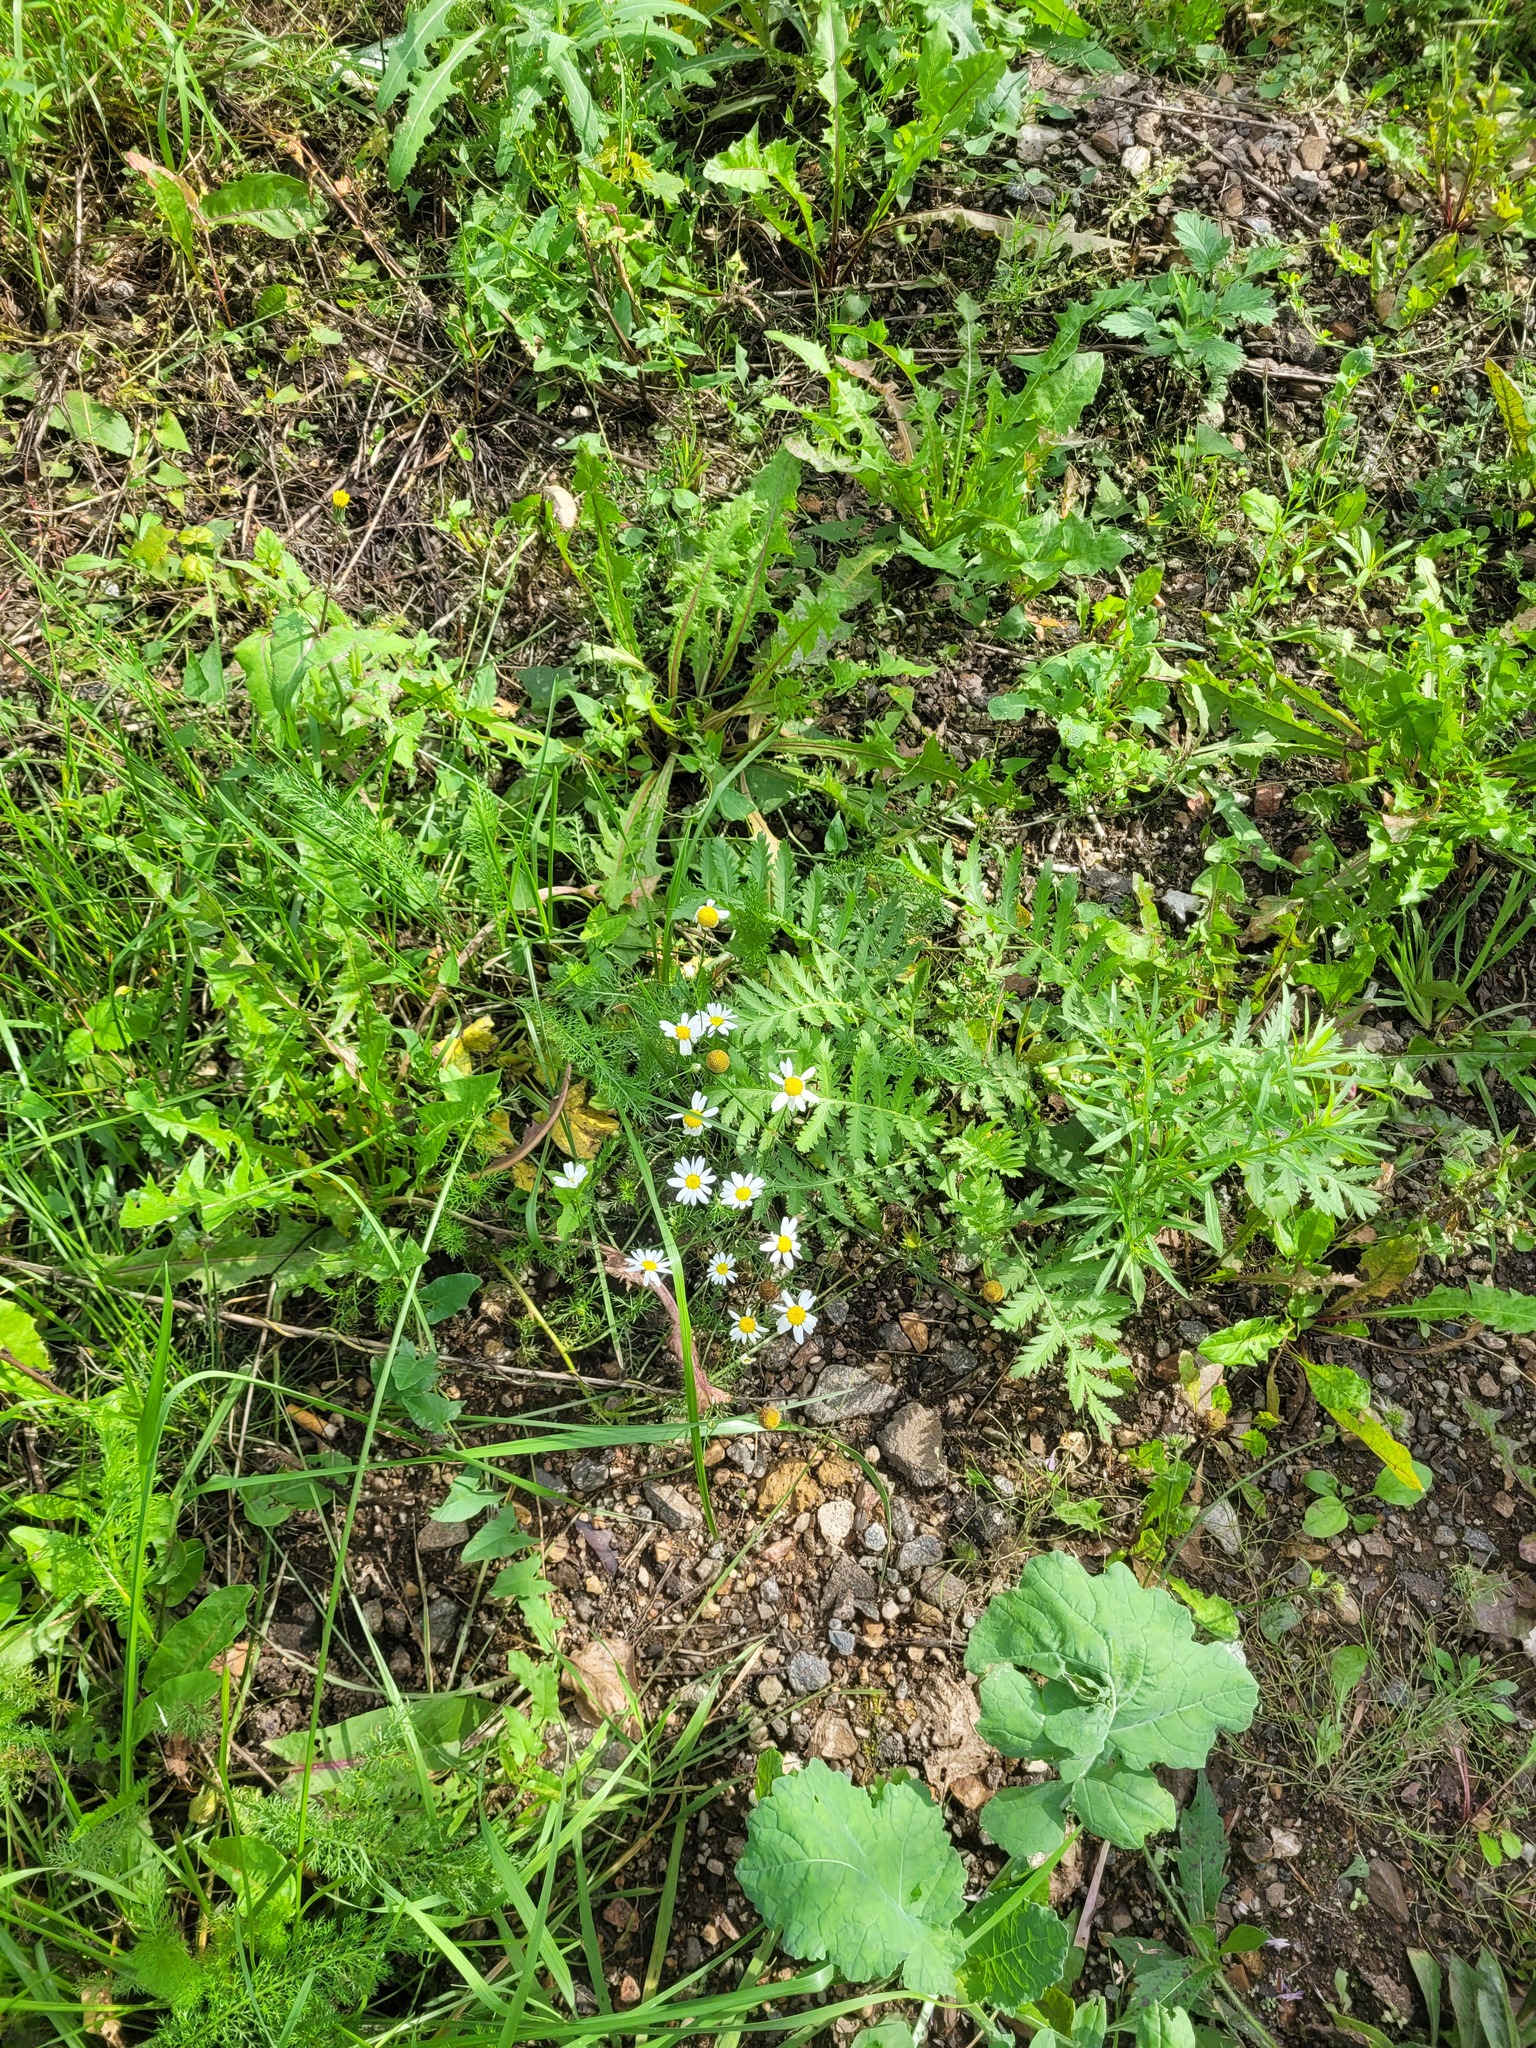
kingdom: Plantae
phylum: Tracheophyta
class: Magnoliopsida
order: Asterales
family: Asteraceae
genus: Tripleurospermum
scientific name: Tripleurospermum inodorum
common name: Scentless mayweed
